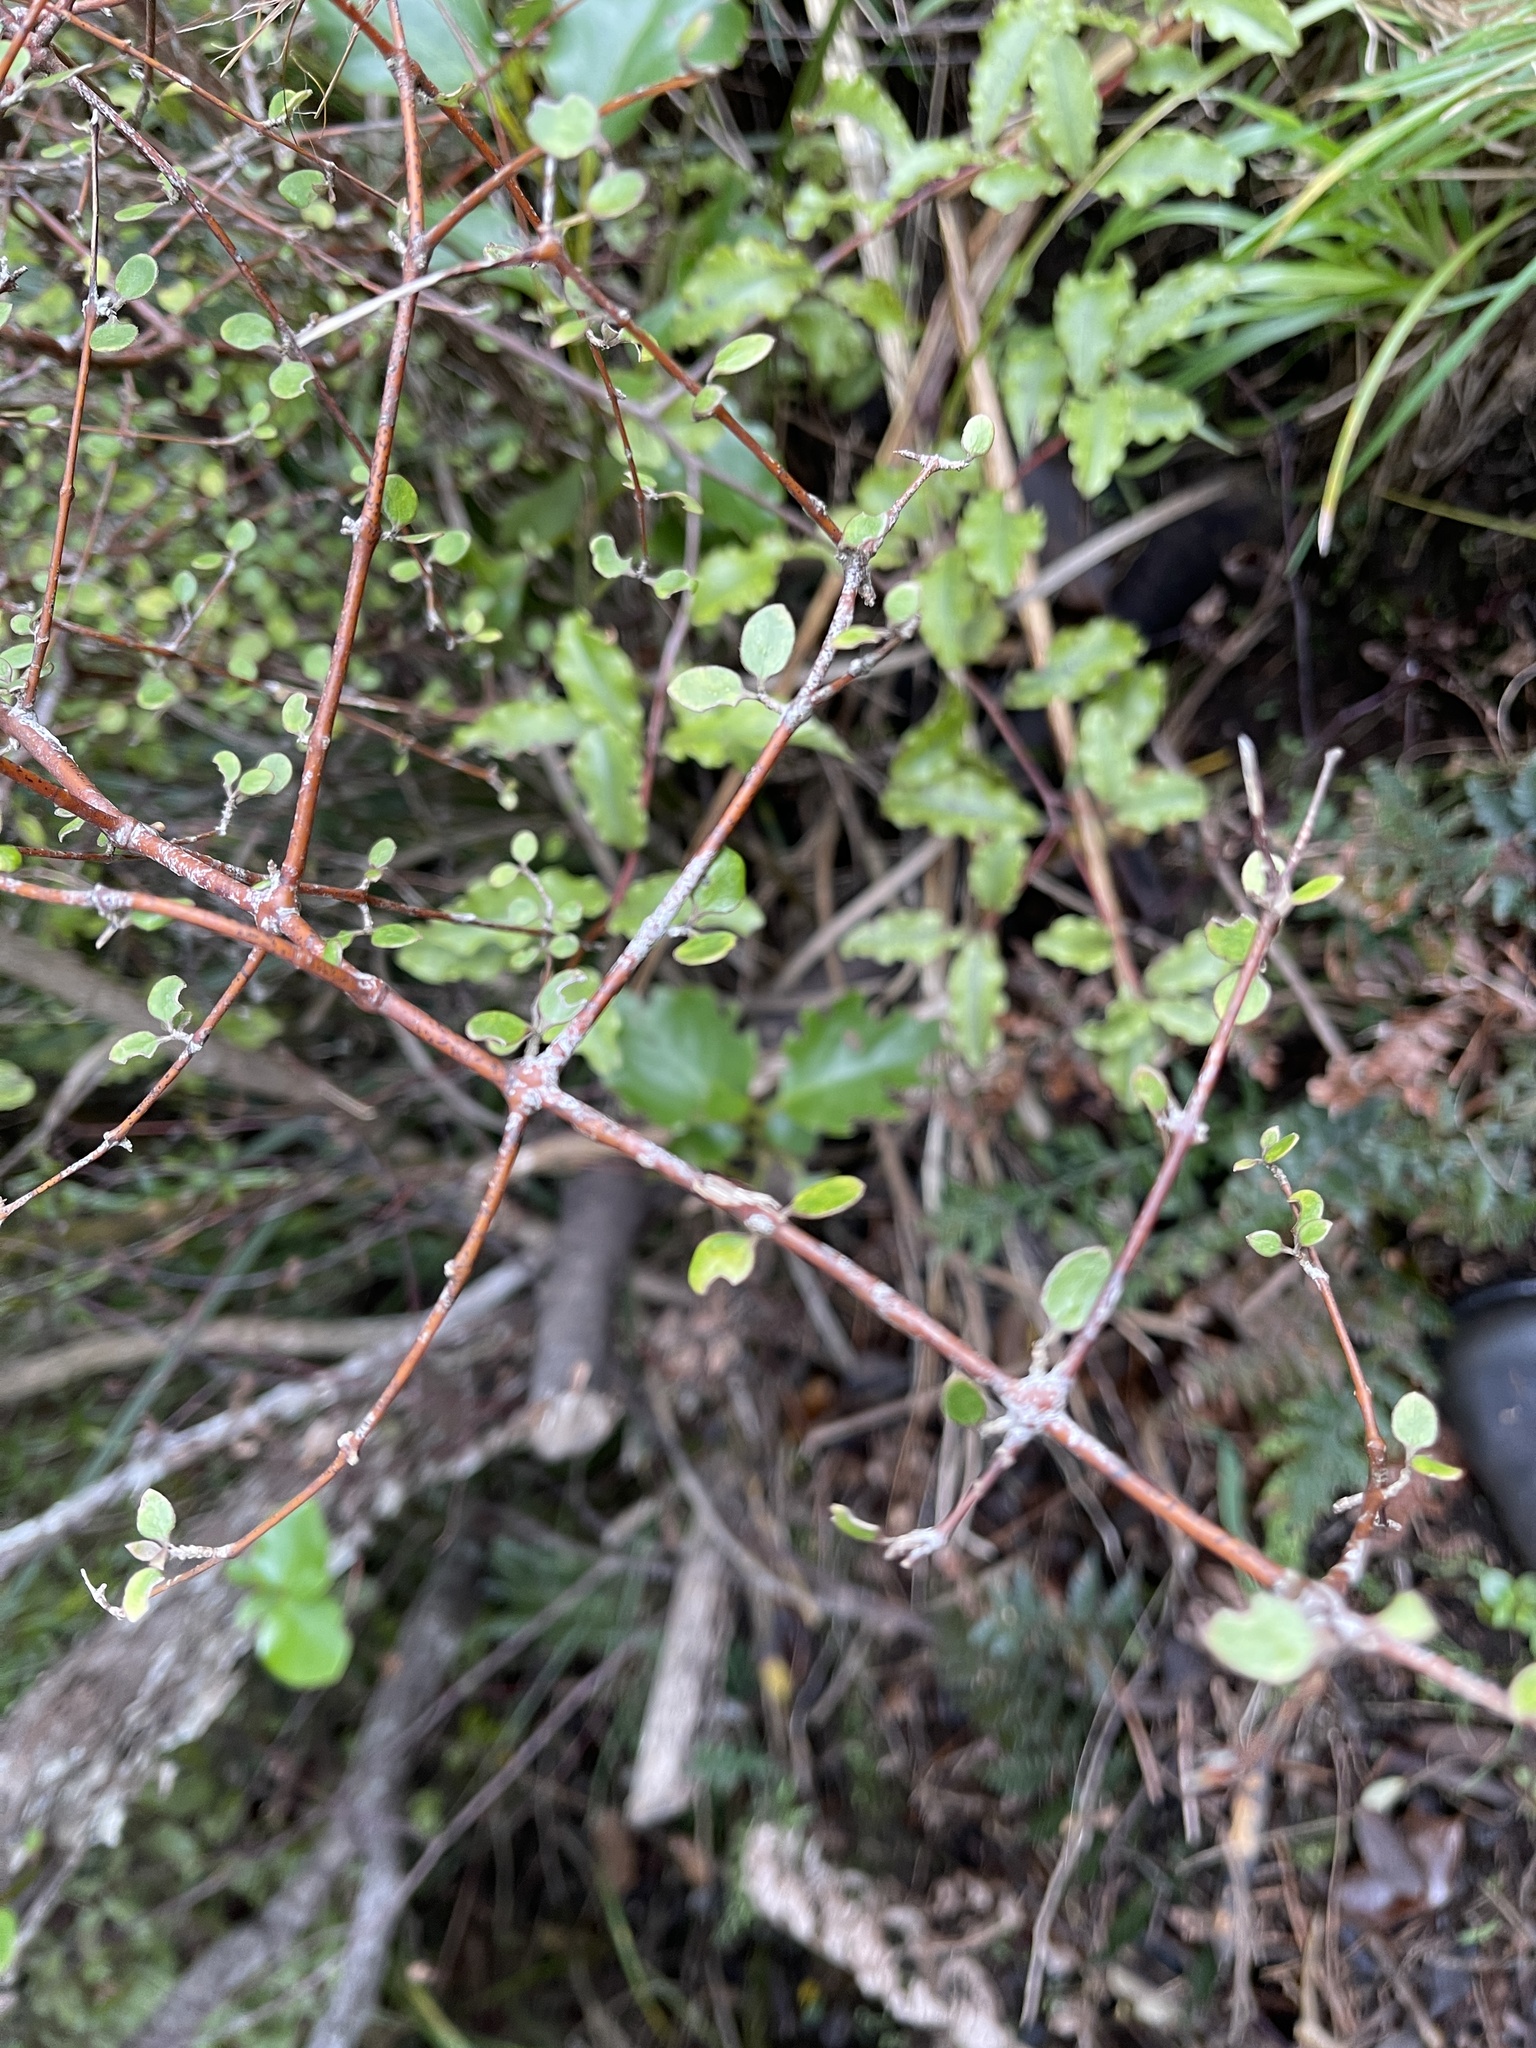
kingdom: Plantae
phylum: Tracheophyta
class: Magnoliopsida
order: Gentianales
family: Rubiaceae
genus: Coprosma
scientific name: Coprosma crassifolia
